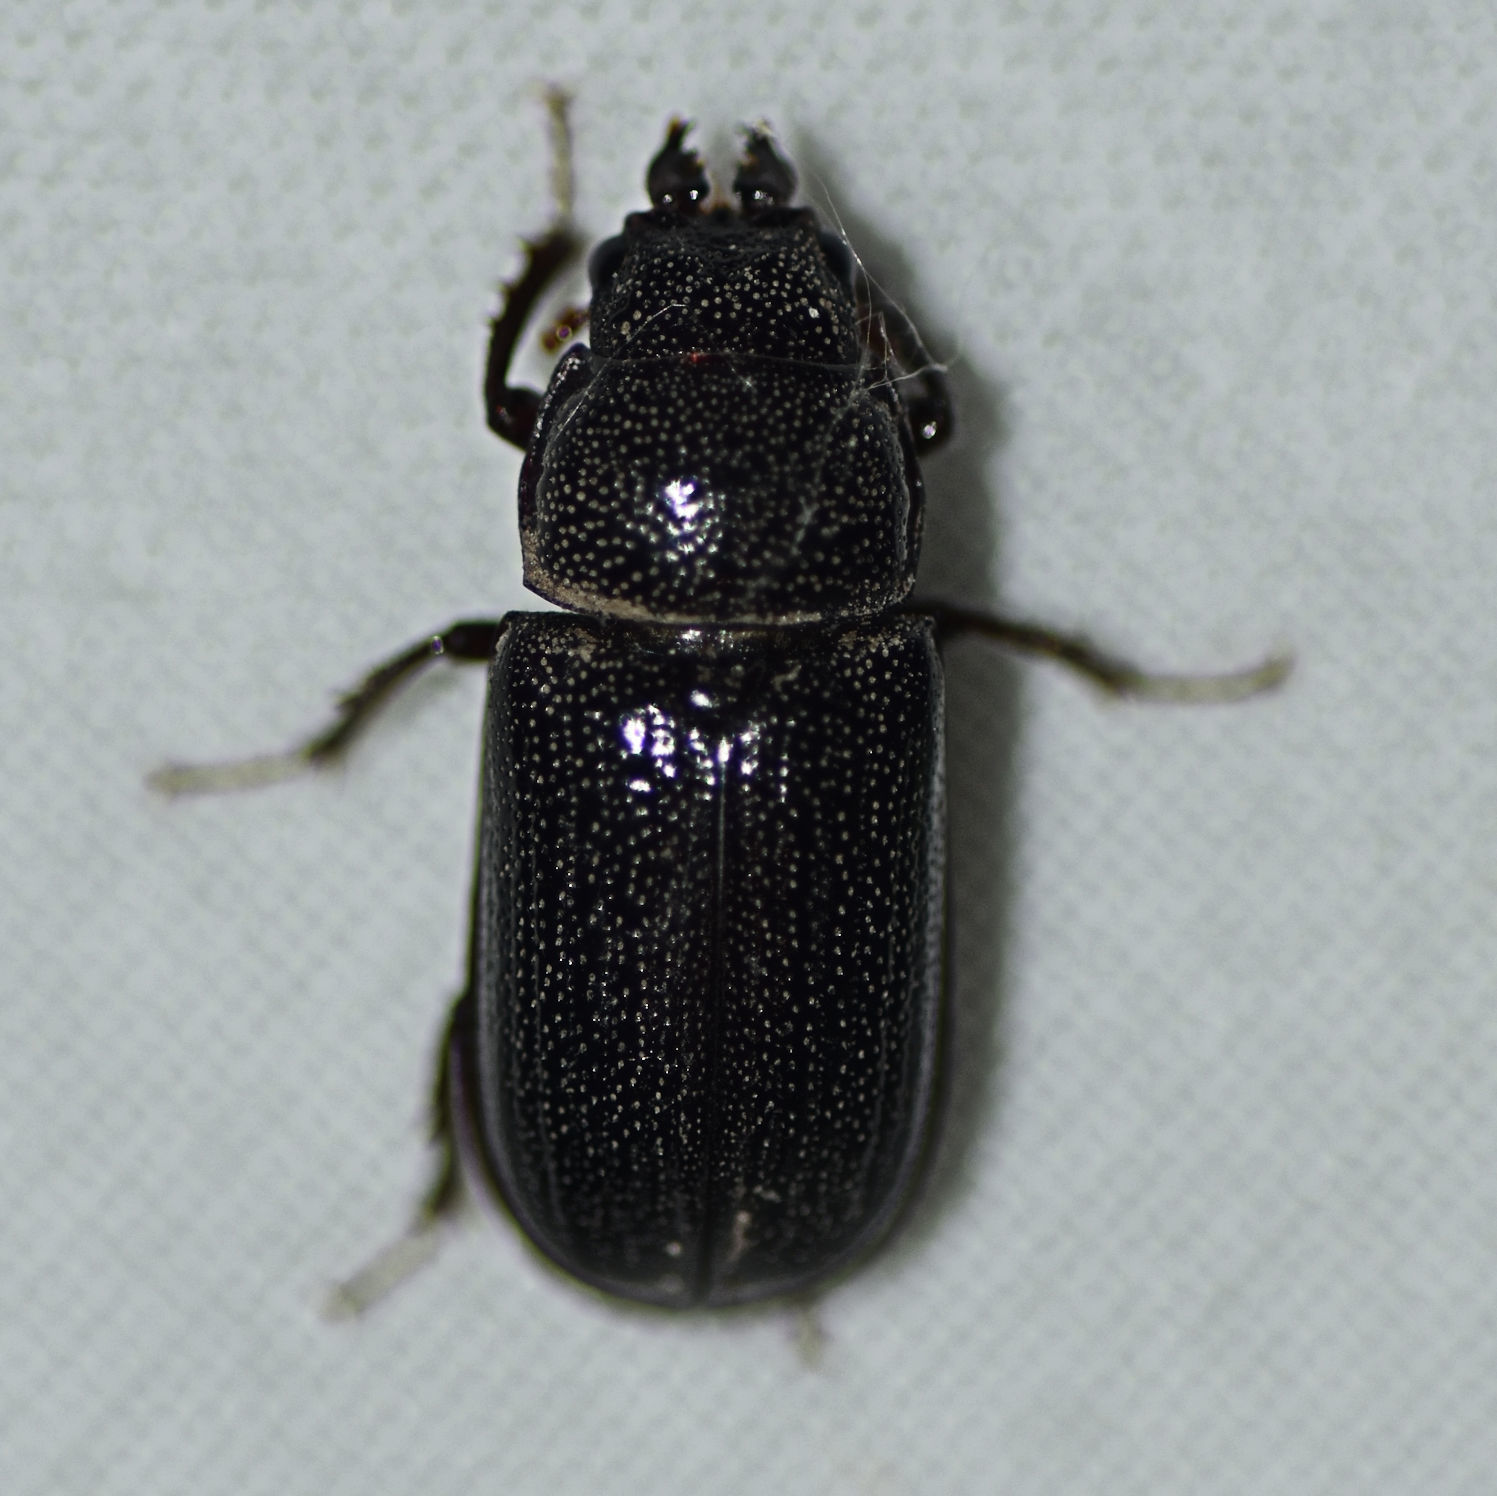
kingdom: Animalia
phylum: Arthropoda
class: Insecta
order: Coleoptera
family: Lucanidae
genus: Ceruchus
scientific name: Ceruchus piceus
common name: Red-rot decay stag beetle
